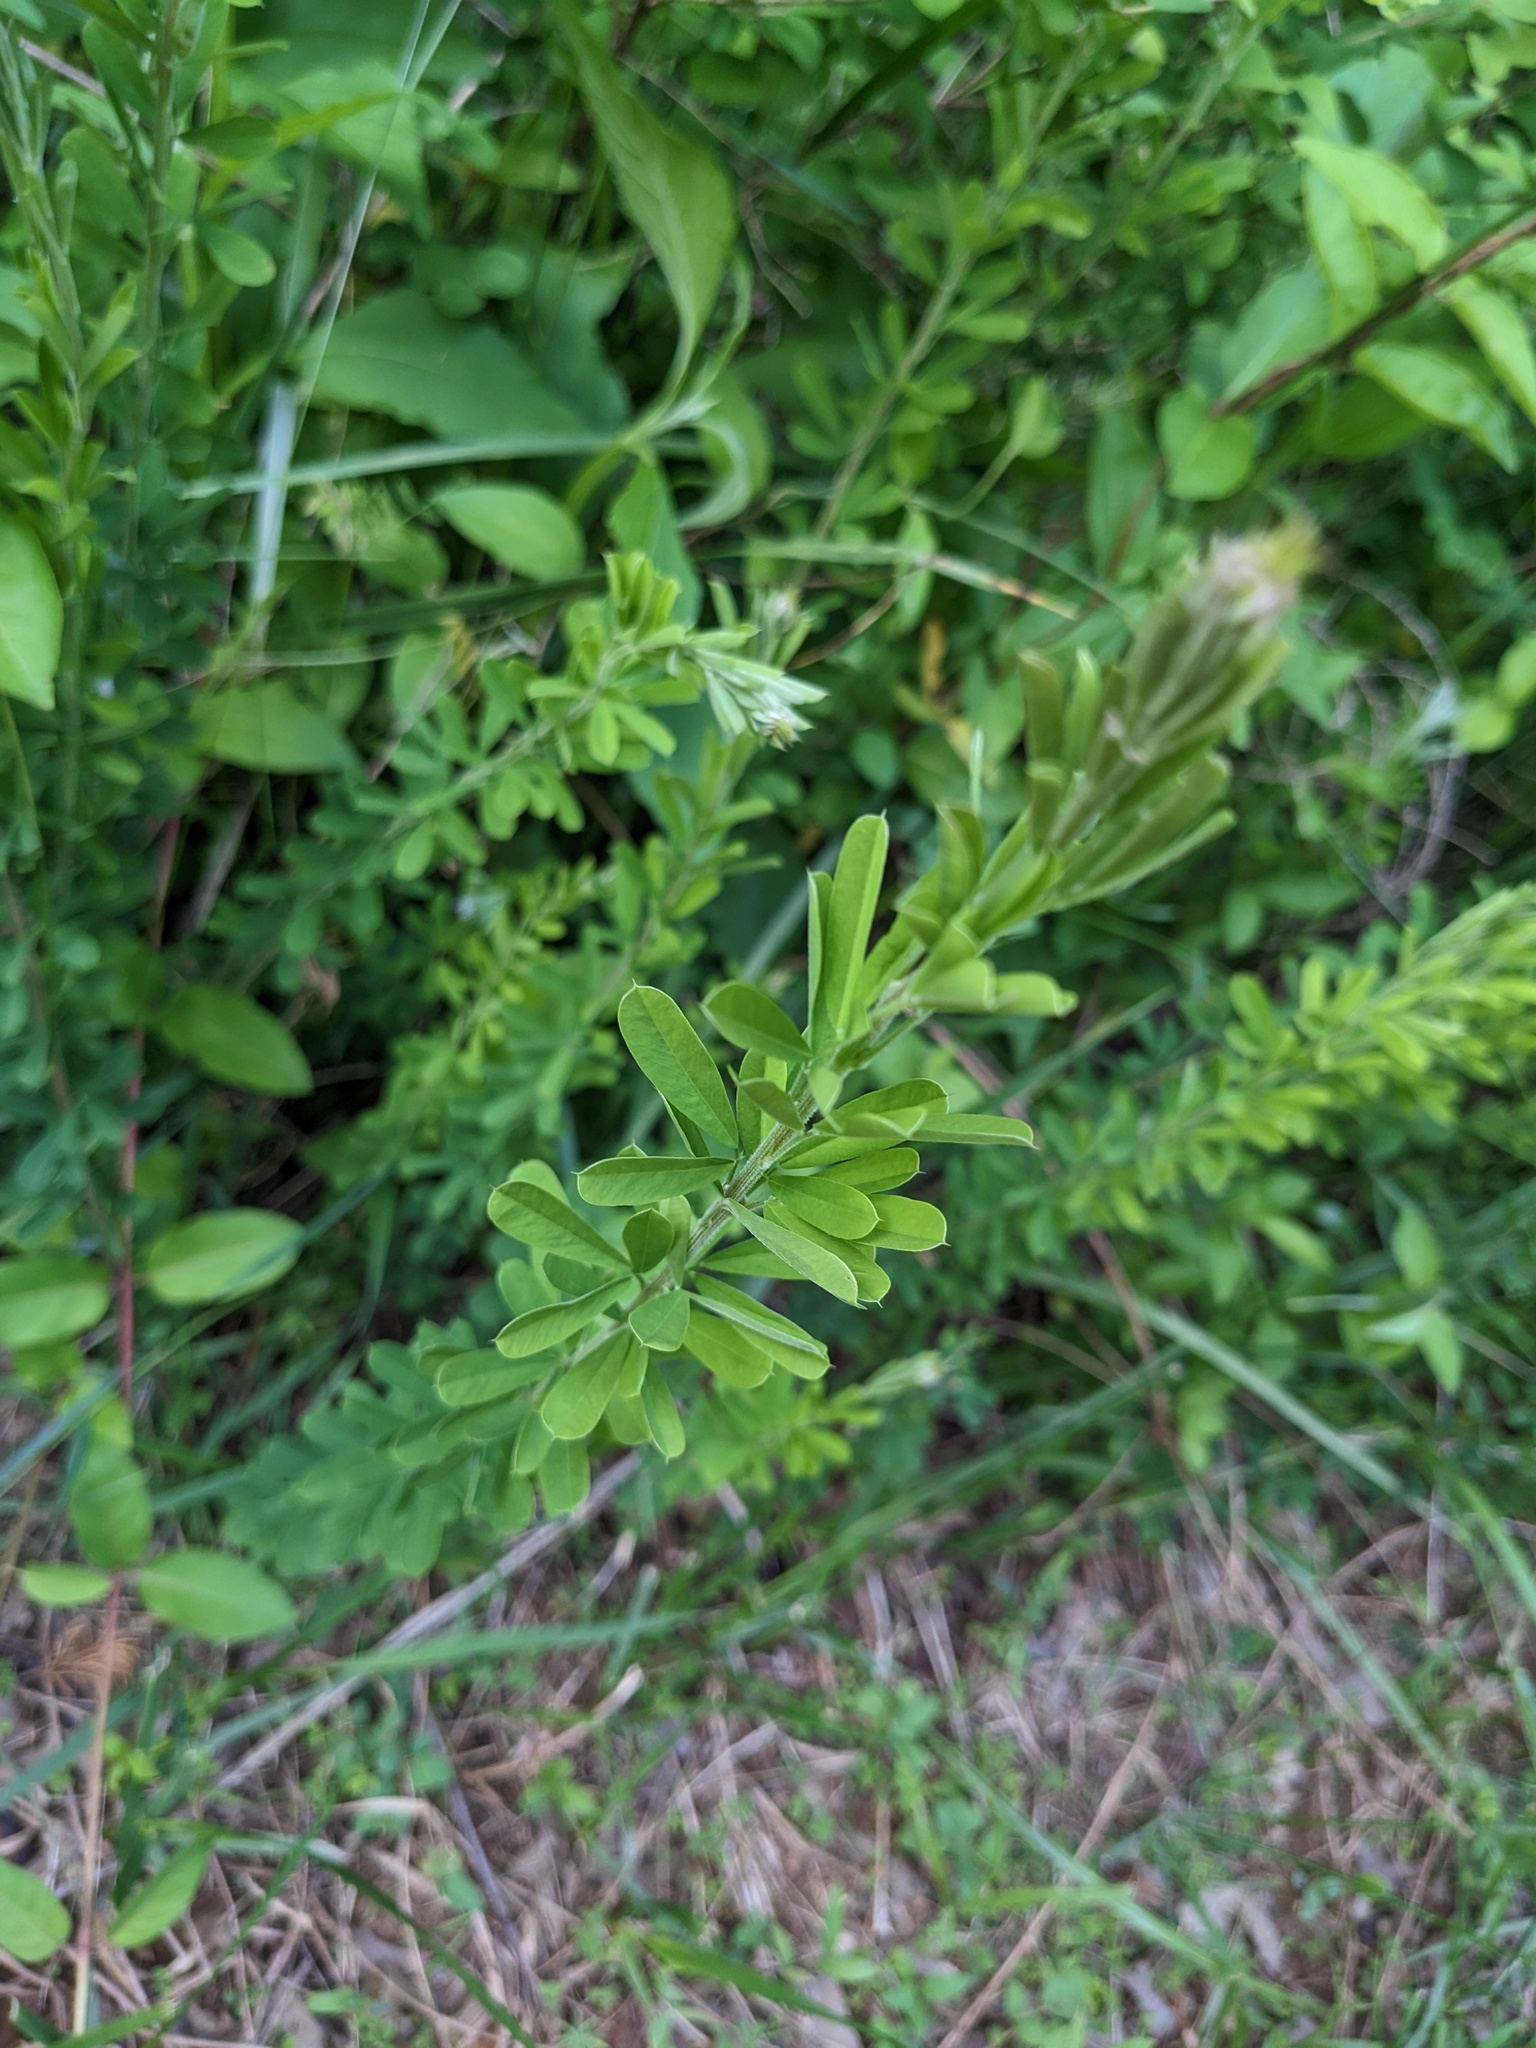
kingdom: Plantae
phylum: Tracheophyta
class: Magnoliopsida
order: Fabales
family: Fabaceae
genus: Lespedeza
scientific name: Lespedeza cuneata
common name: Chinese bush-clover
